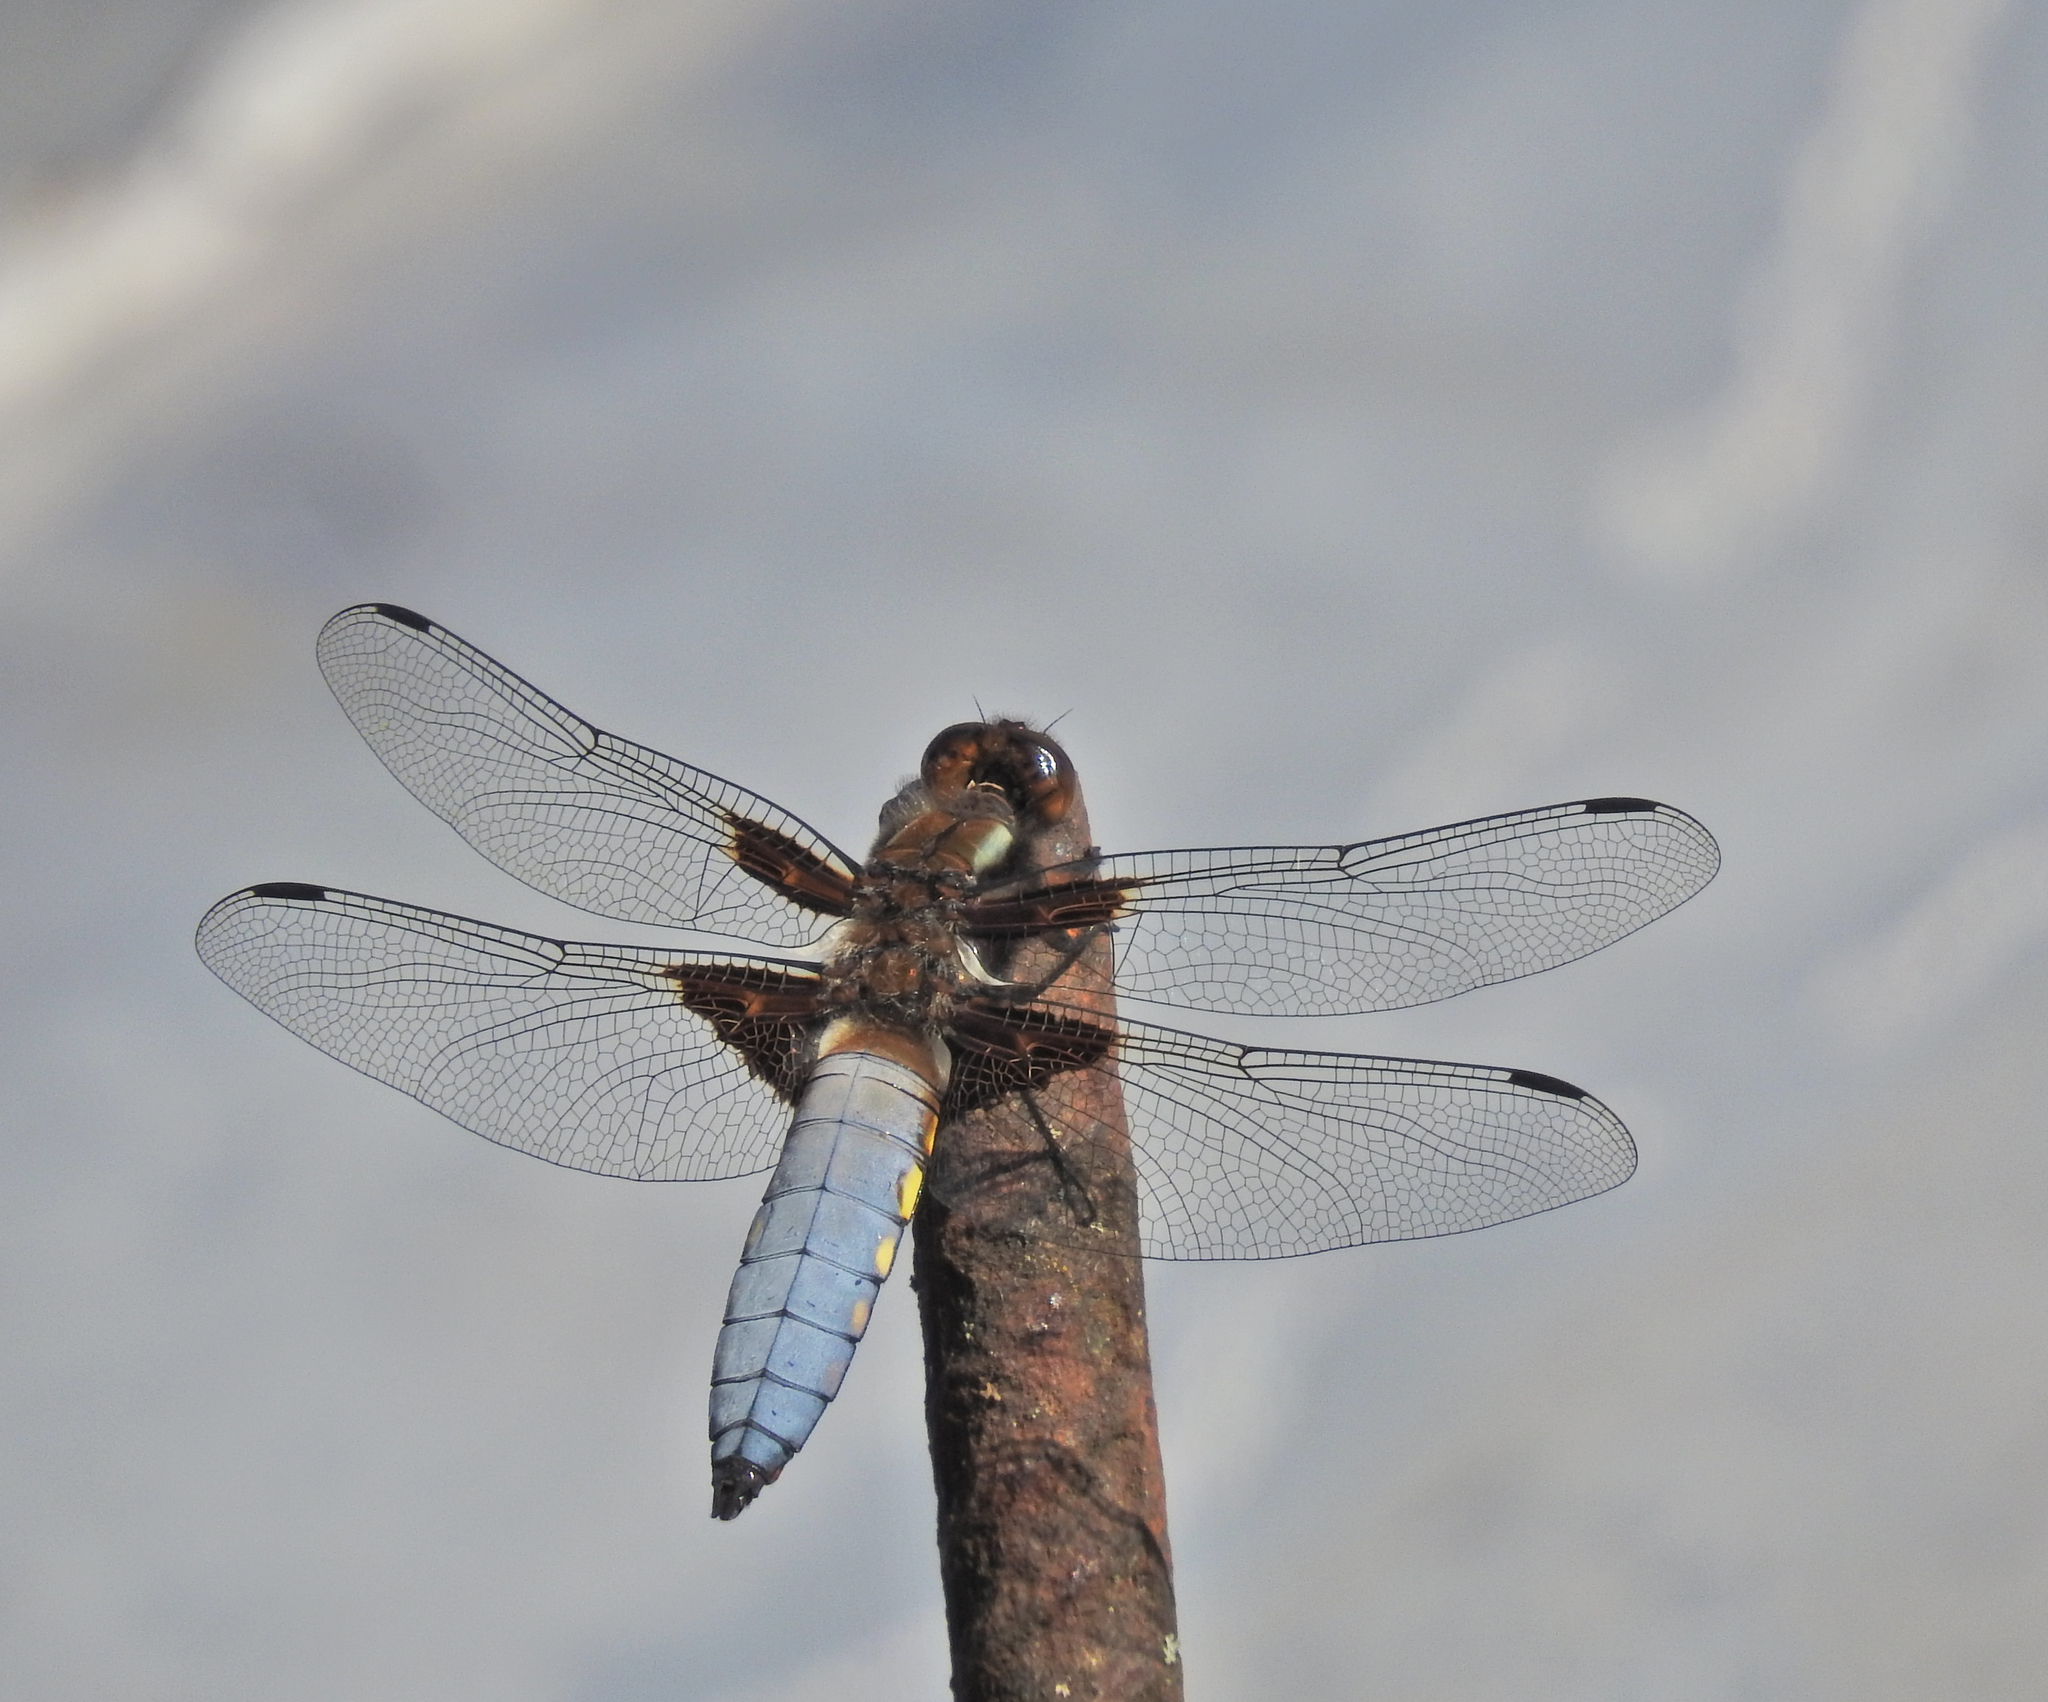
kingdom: Animalia
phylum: Arthropoda
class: Insecta
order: Odonata
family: Libellulidae
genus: Libellula
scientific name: Libellula depressa
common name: Broad-bodied chaser
